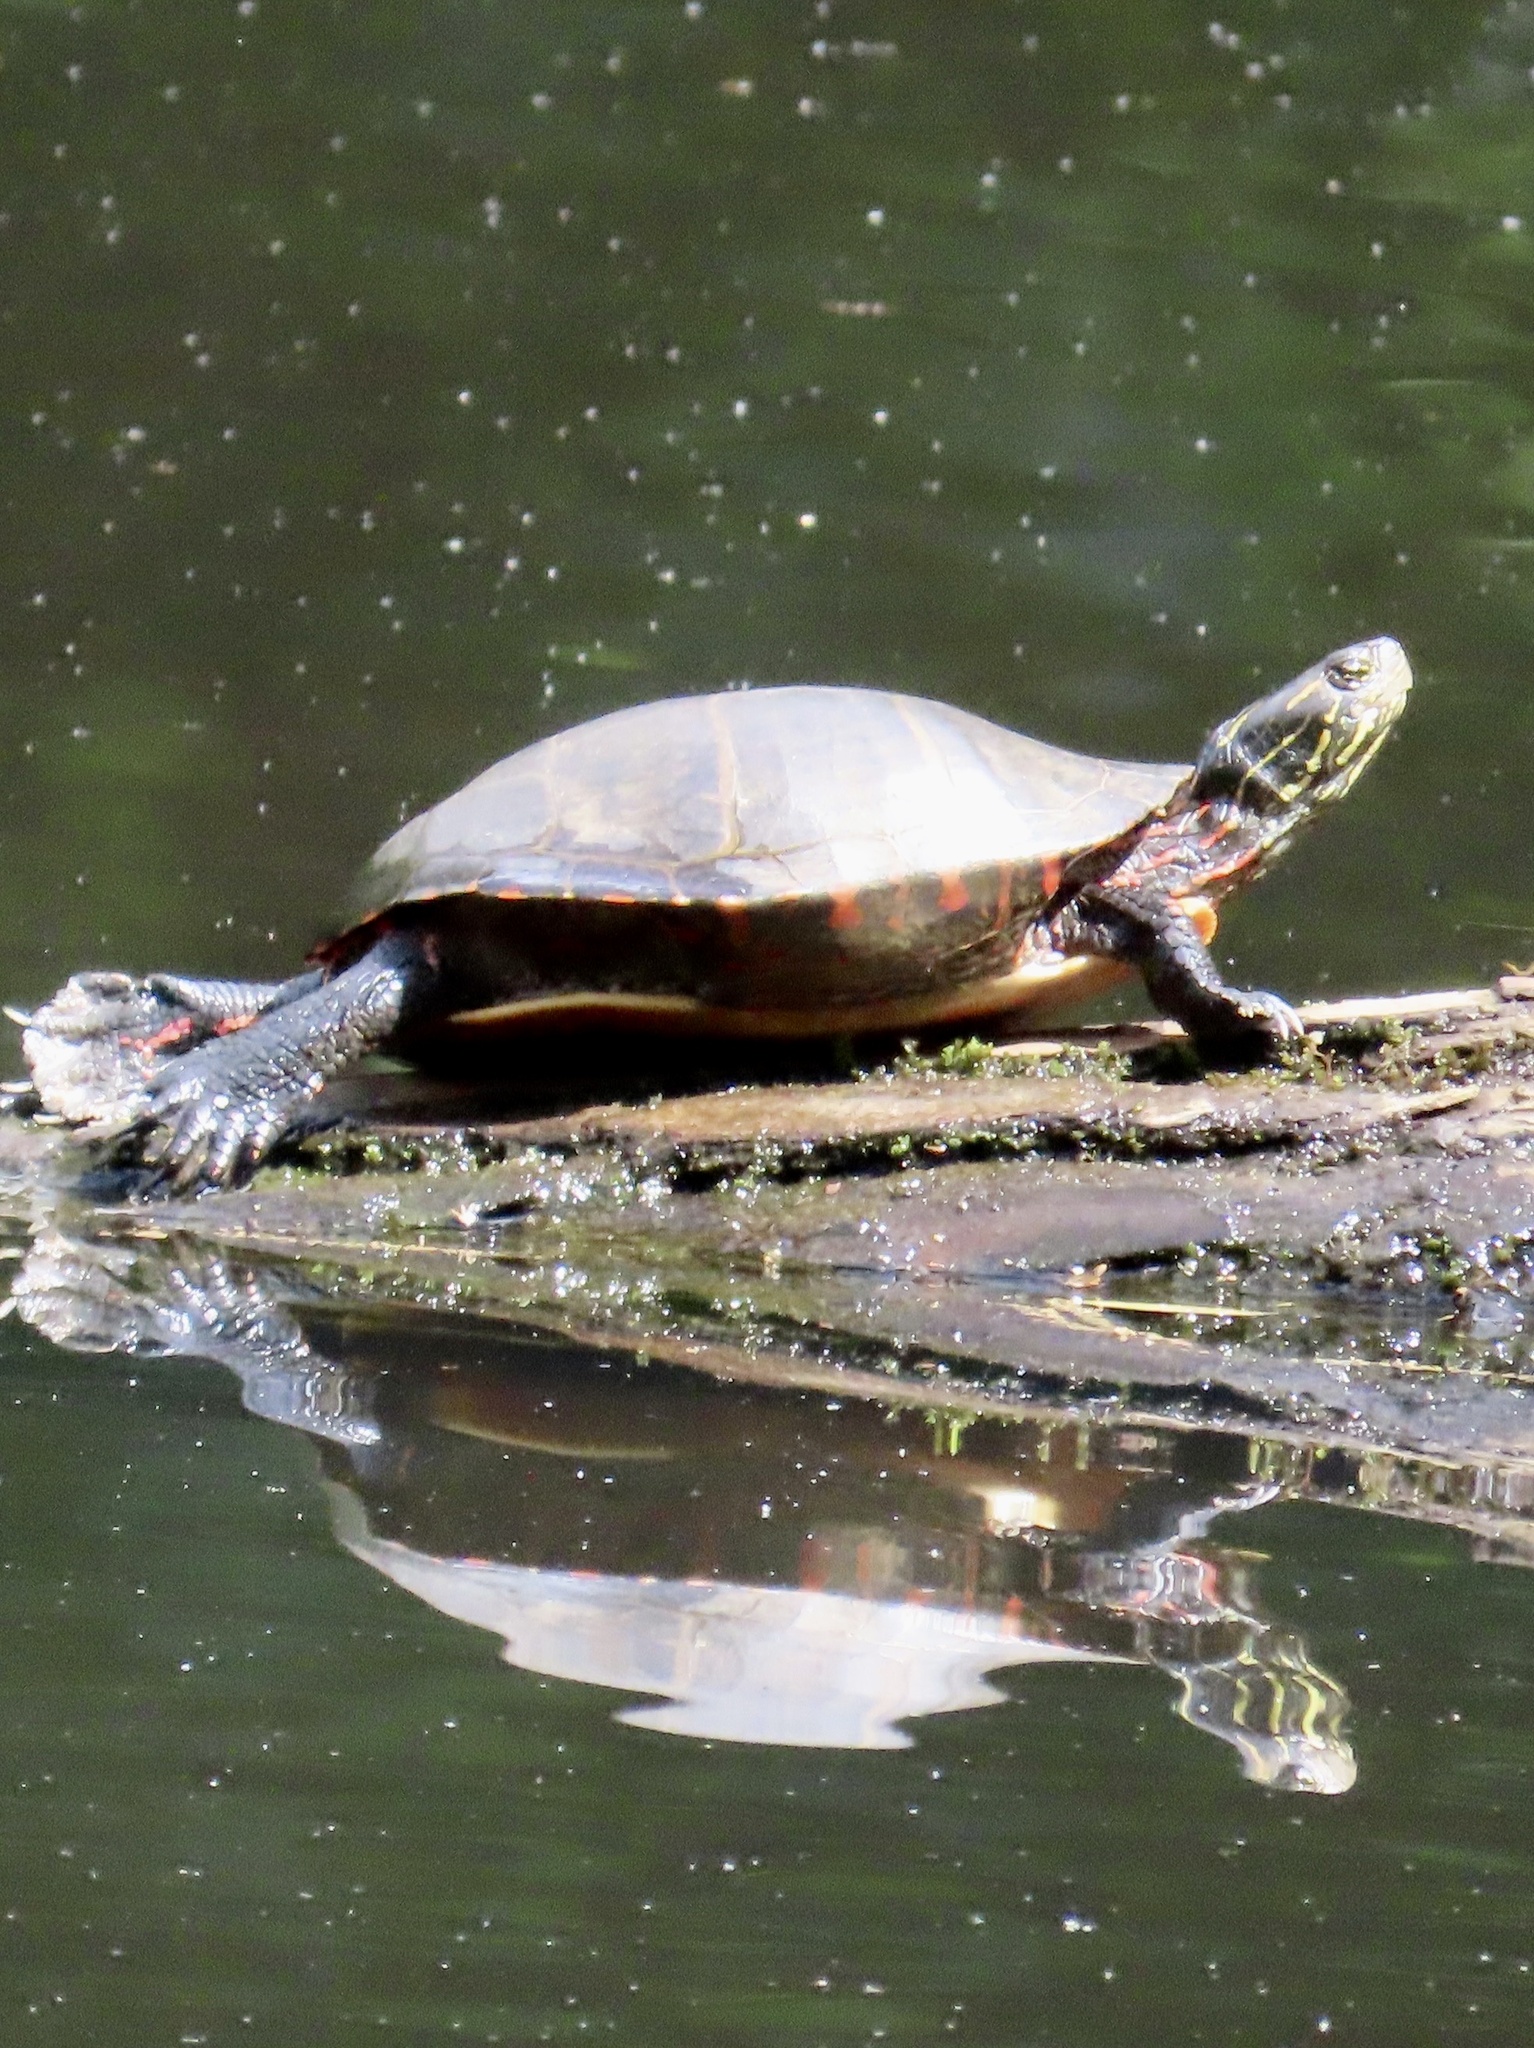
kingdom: Animalia
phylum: Chordata
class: Testudines
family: Emydidae
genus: Chrysemys
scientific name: Chrysemys picta
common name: Painted turtle
